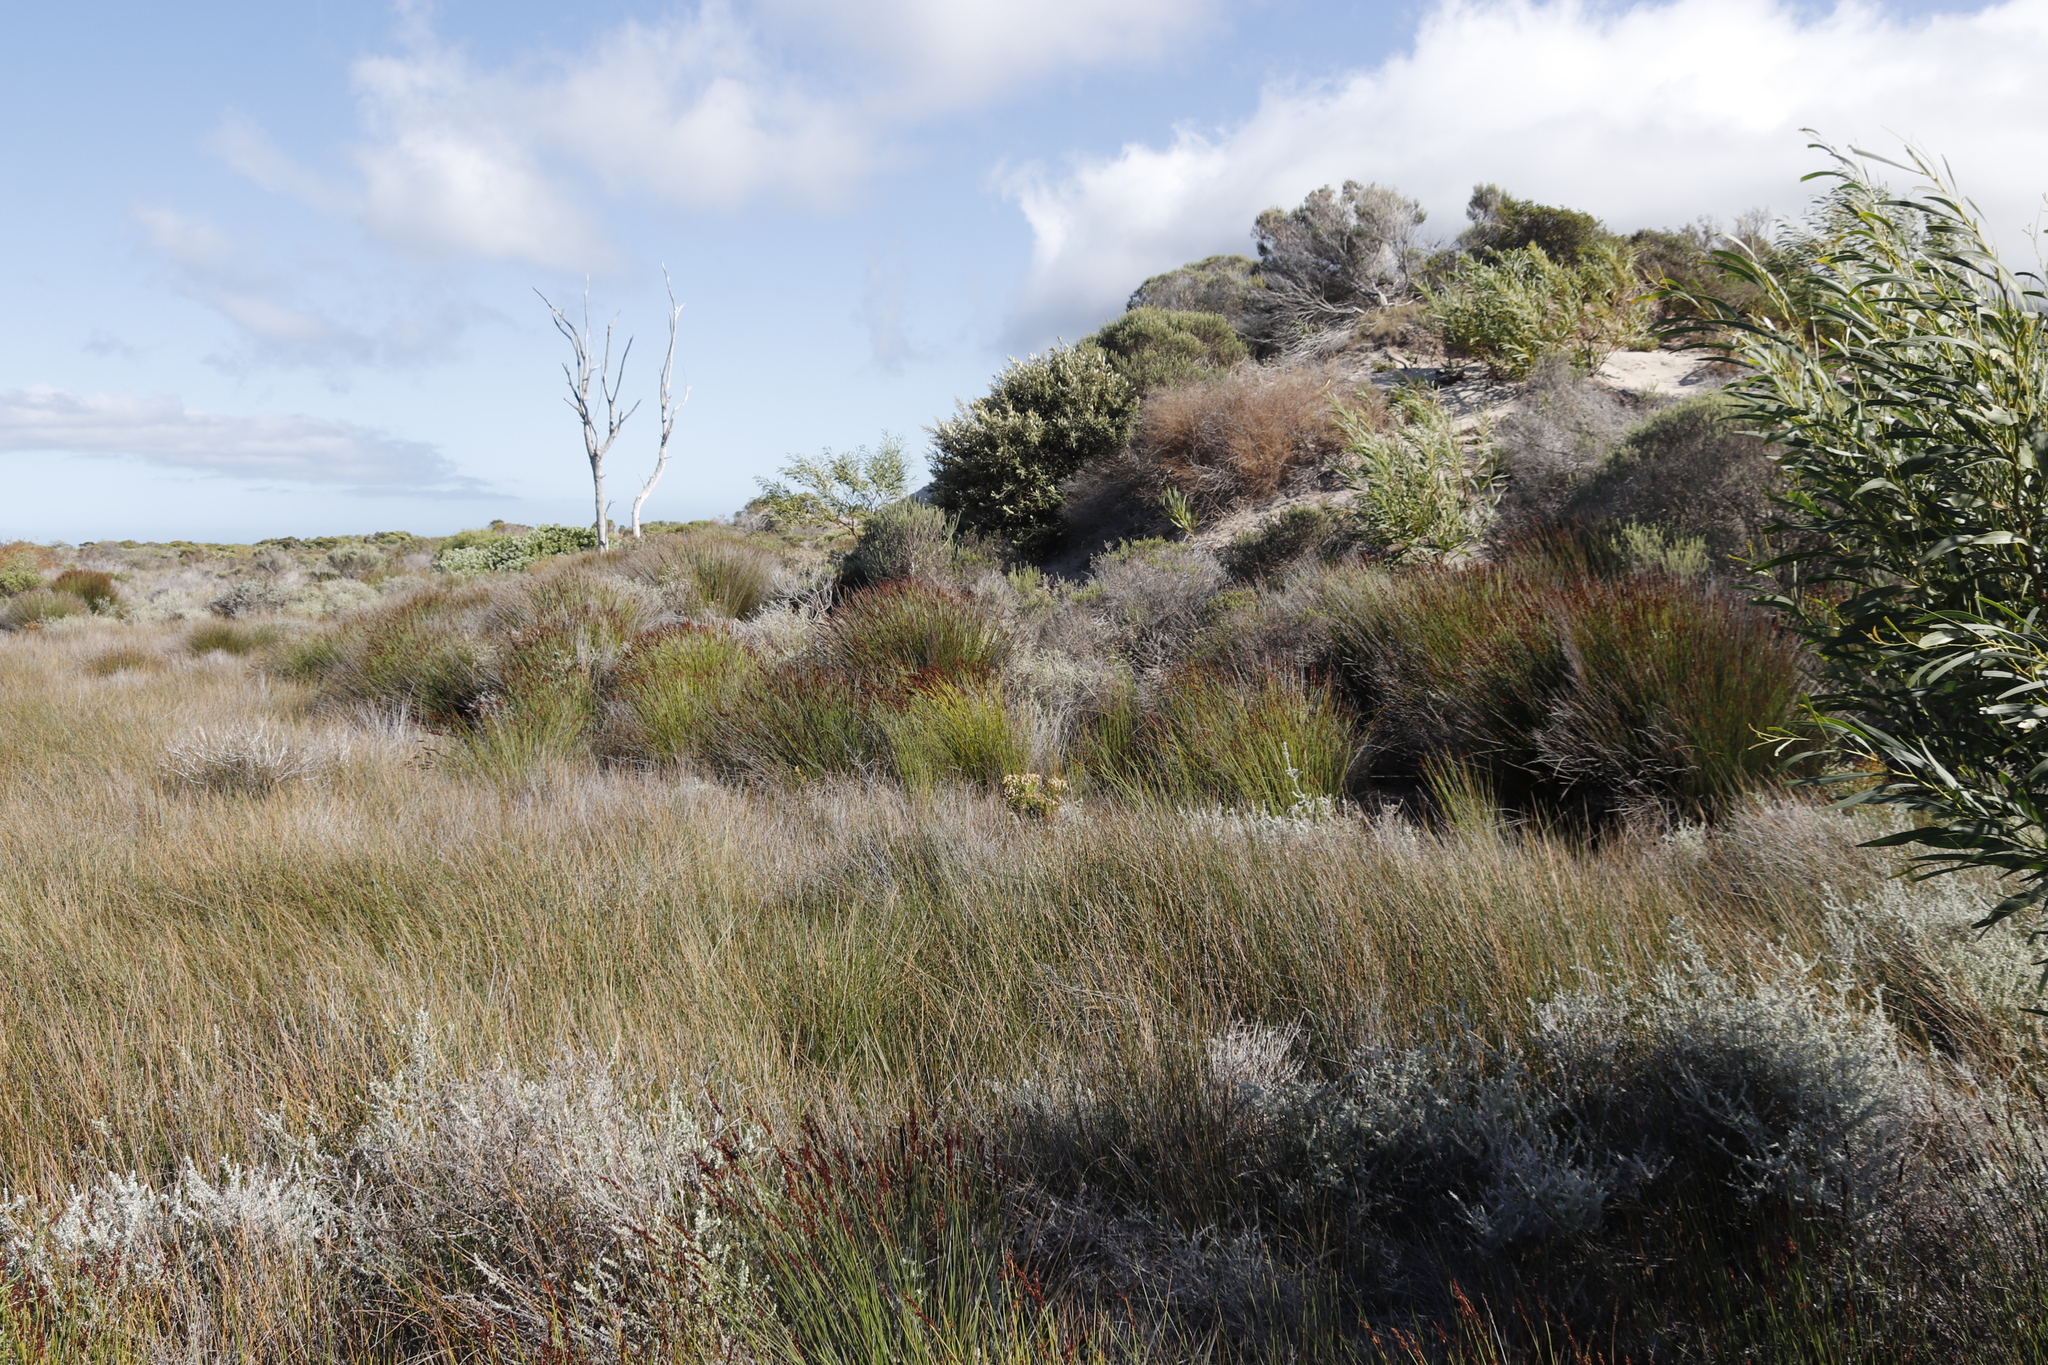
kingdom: Plantae
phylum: Tracheophyta
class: Liliopsida
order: Poales
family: Restionaceae
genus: Elegia
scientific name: Elegia tectorum
